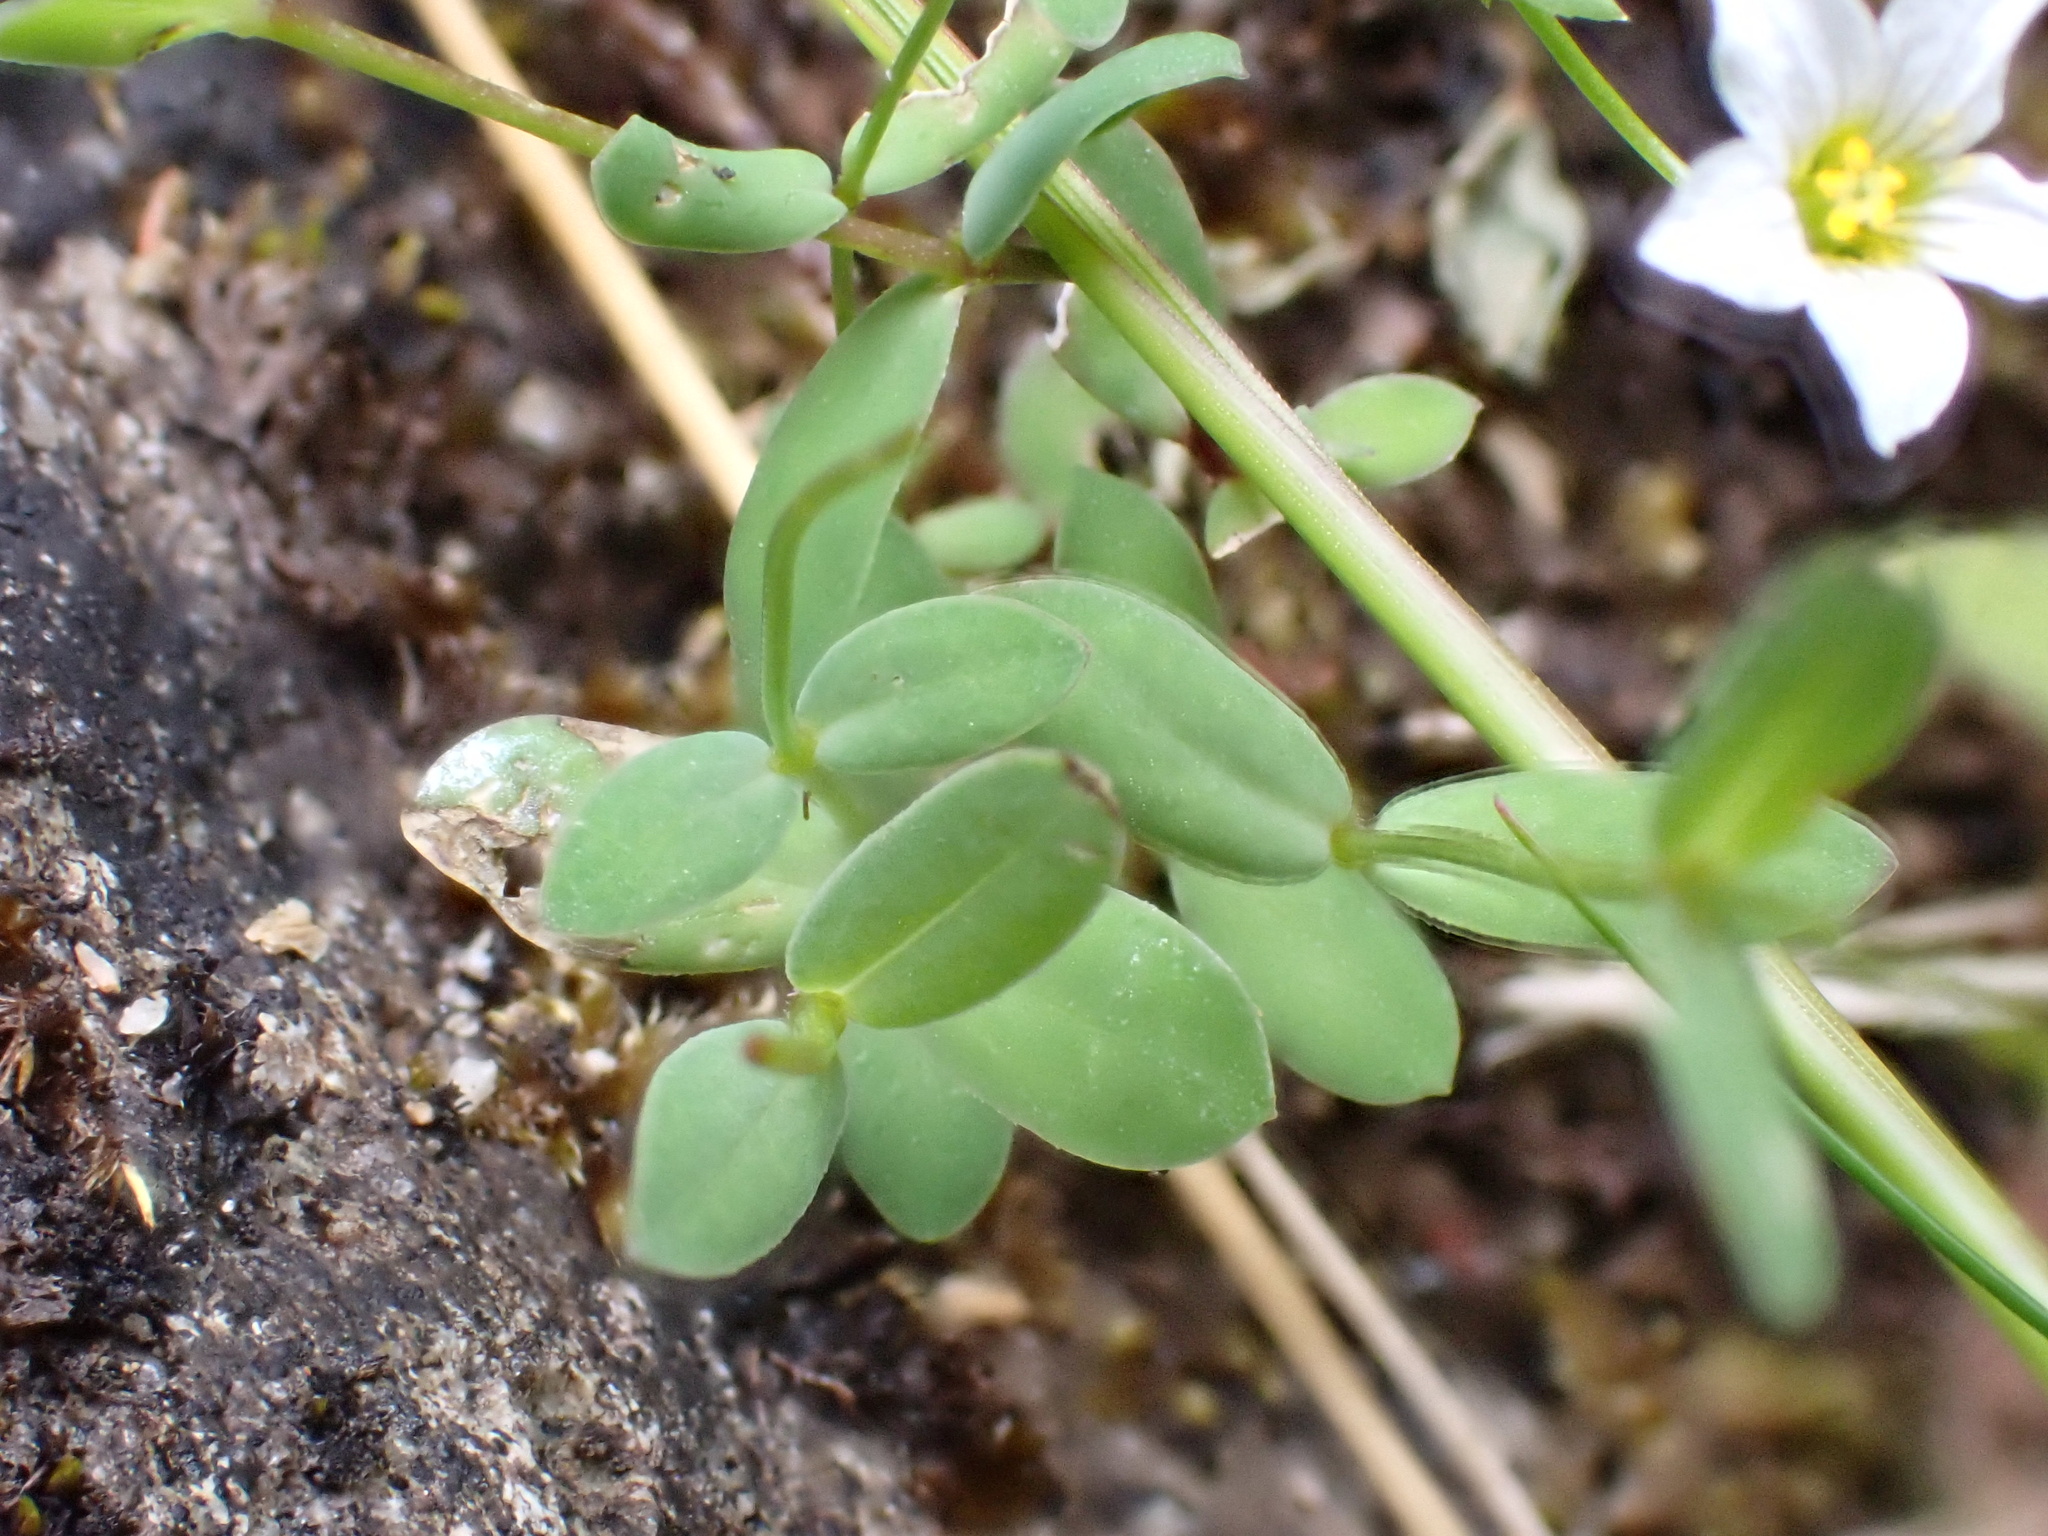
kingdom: Plantae
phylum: Tracheophyta
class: Magnoliopsida
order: Malpighiales
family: Linaceae
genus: Linum
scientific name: Linum catharticum
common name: Fairy flax
